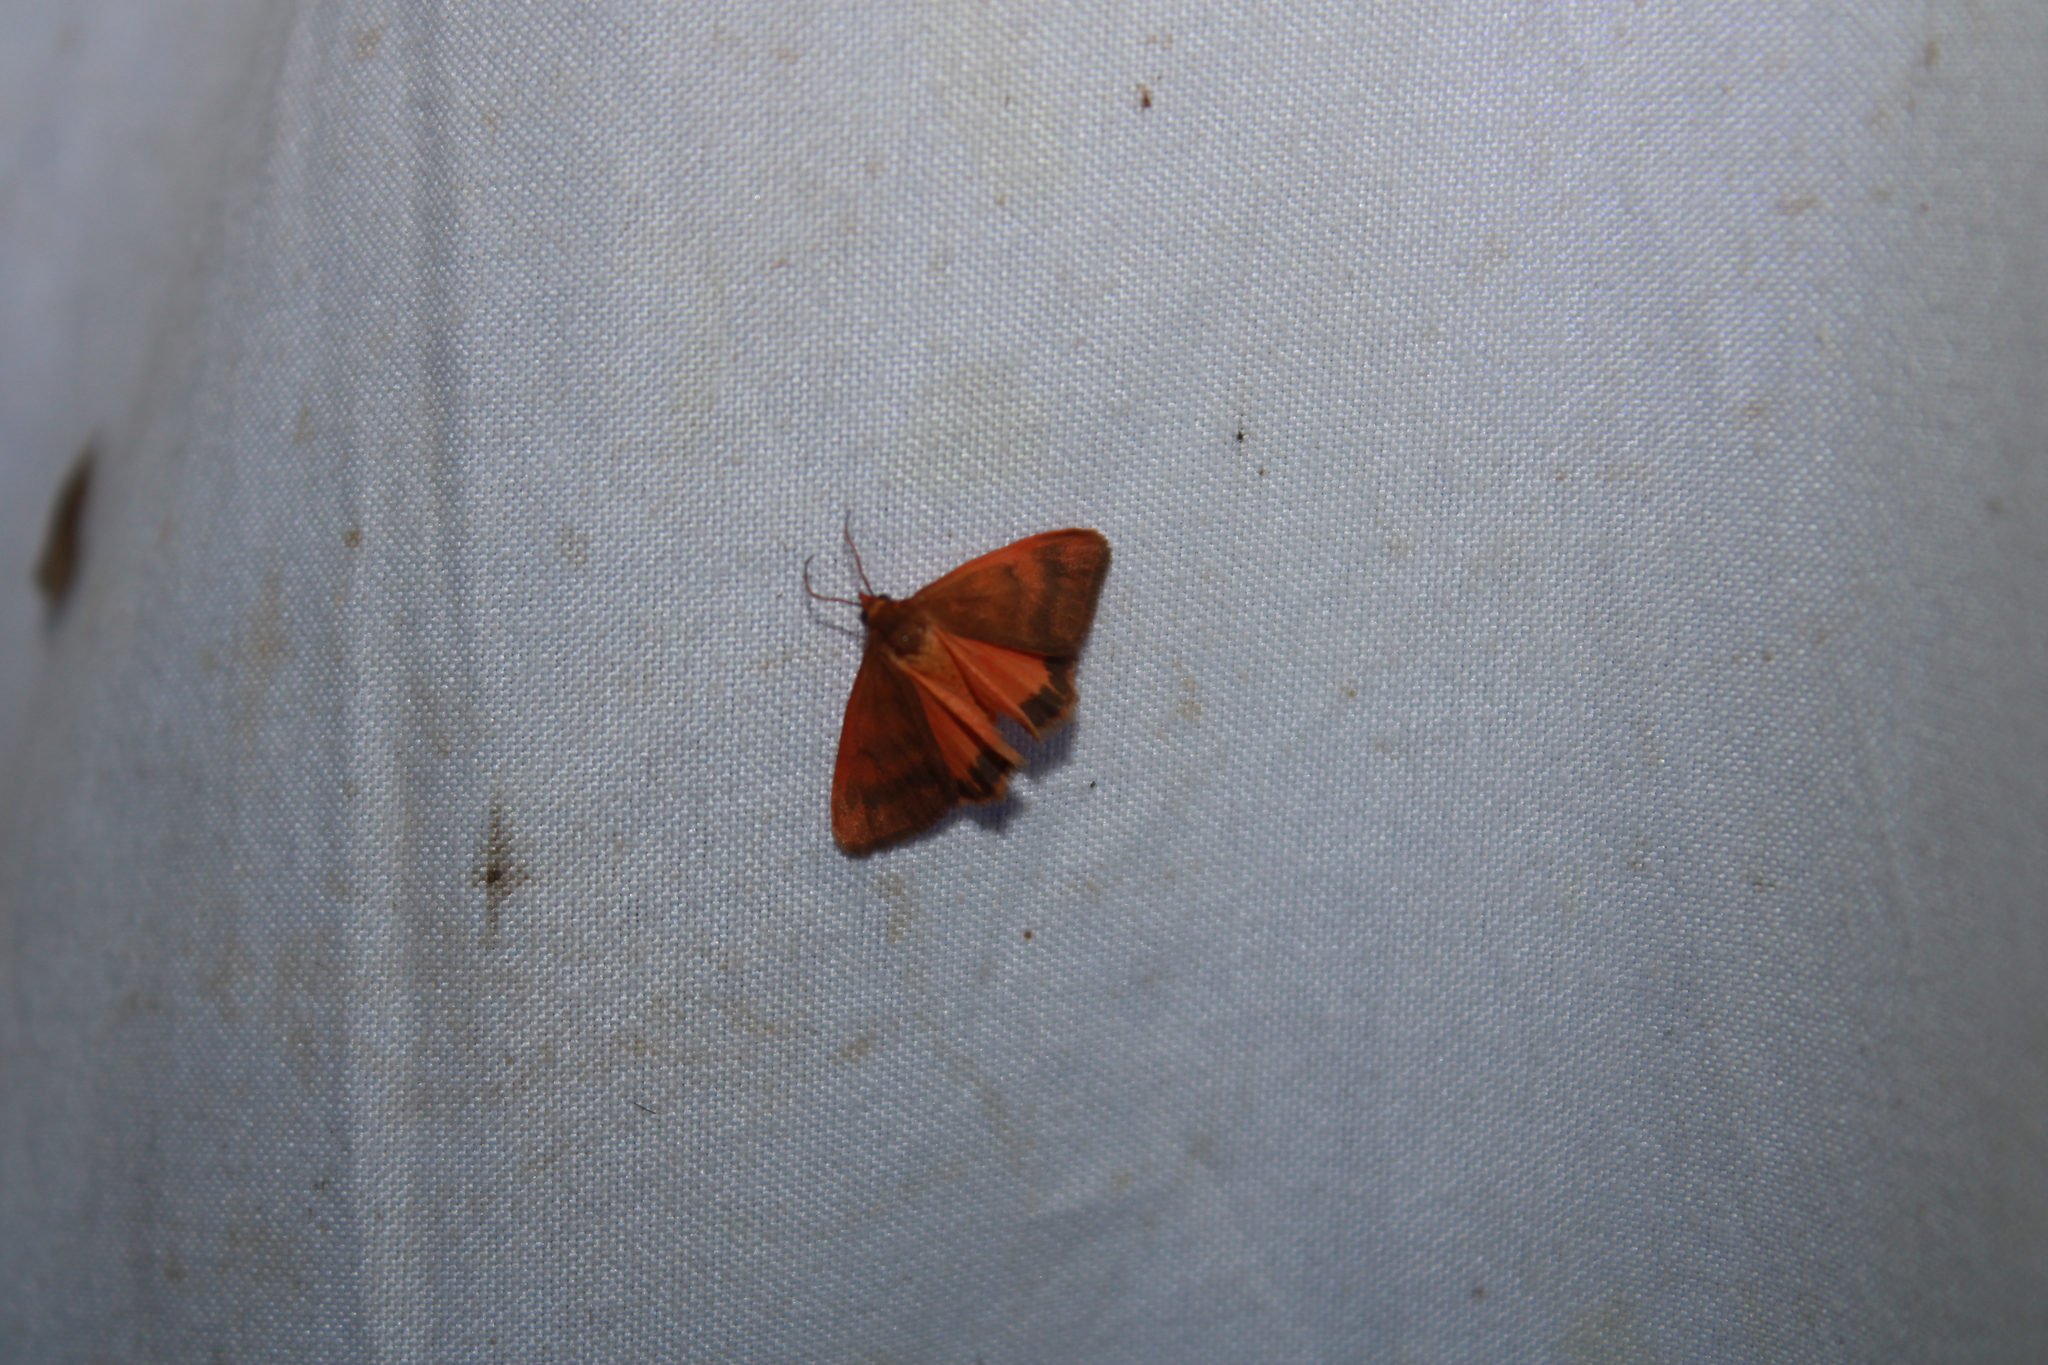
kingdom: Animalia
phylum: Arthropoda
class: Insecta
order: Lepidoptera
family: Erebidae
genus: Virbia
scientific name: Virbia aurantiaca
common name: Orange virbia moth
